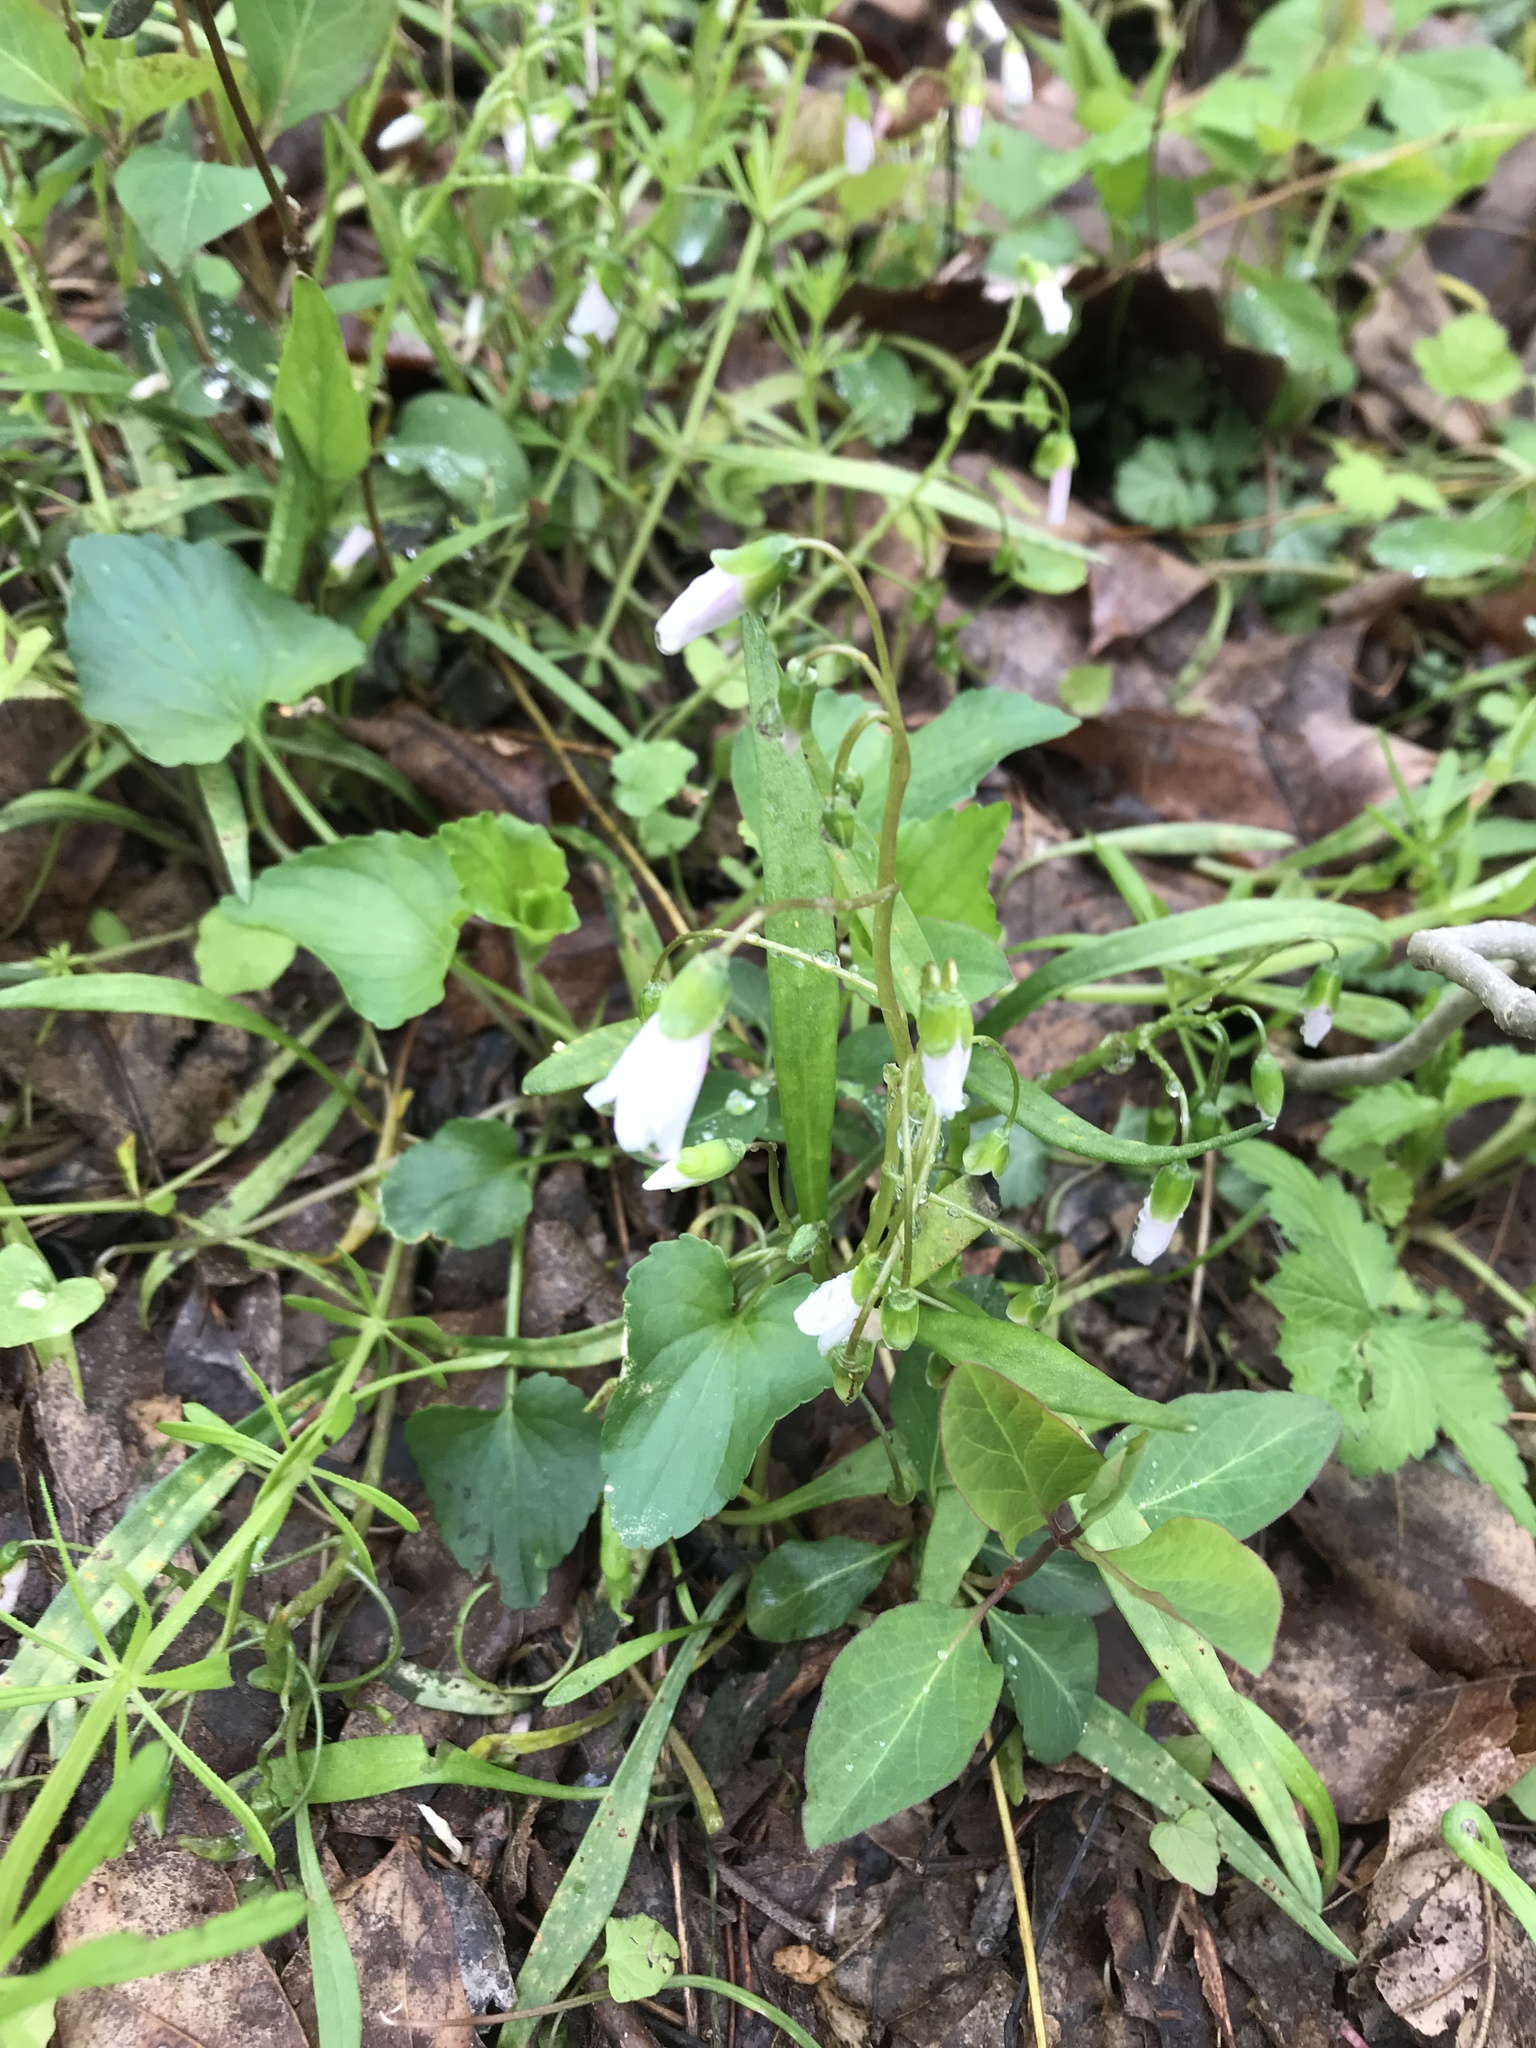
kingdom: Plantae
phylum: Tracheophyta
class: Magnoliopsida
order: Caryophyllales
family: Montiaceae
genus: Claytonia
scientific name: Claytonia virginica
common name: Virginia springbeauty
